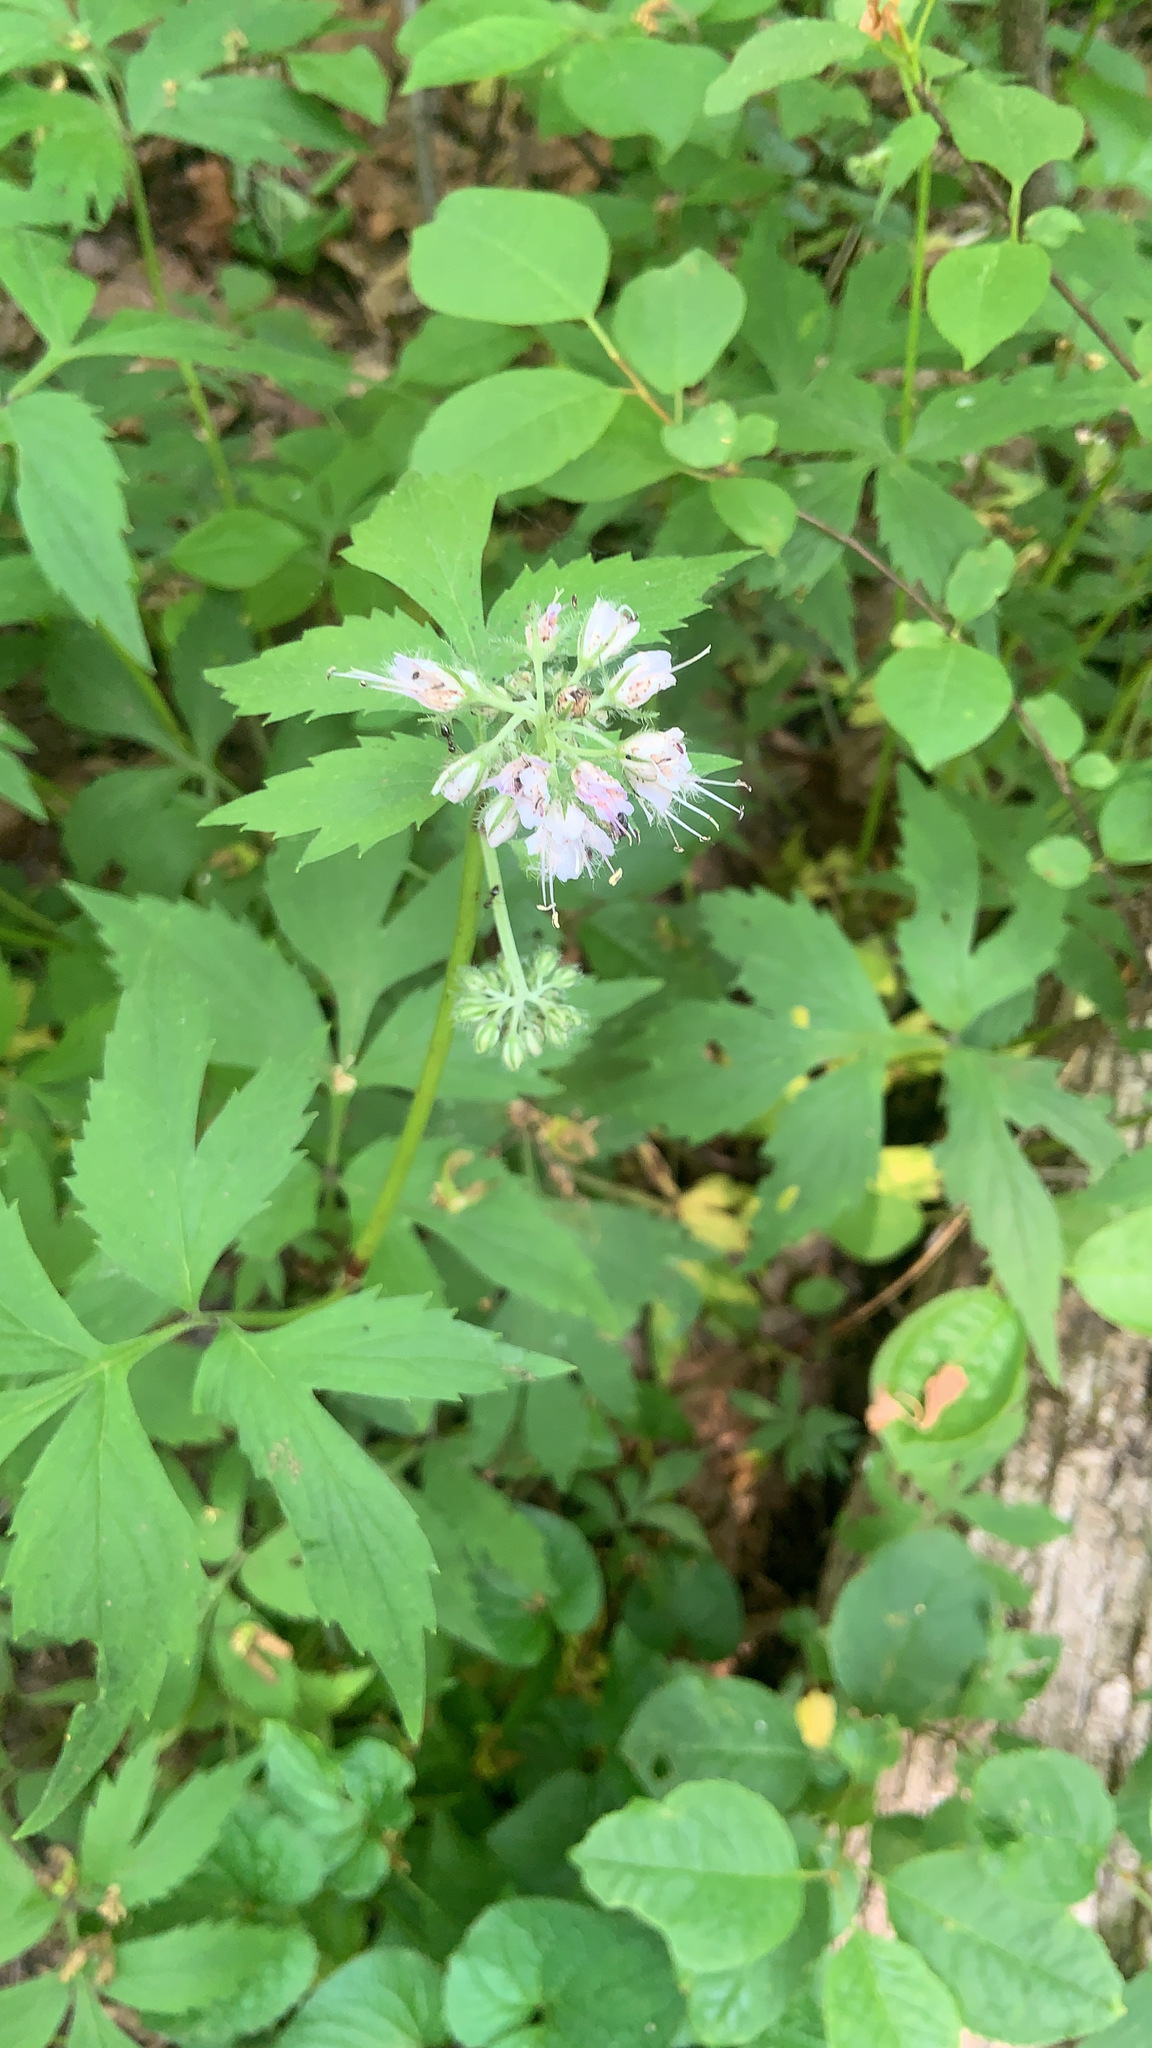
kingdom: Plantae
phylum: Tracheophyta
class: Magnoliopsida
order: Boraginales
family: Hydrophyllaceae
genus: Hydrophyllum
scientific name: Hydrophyllum virginianum
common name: Virginia waterleaf
